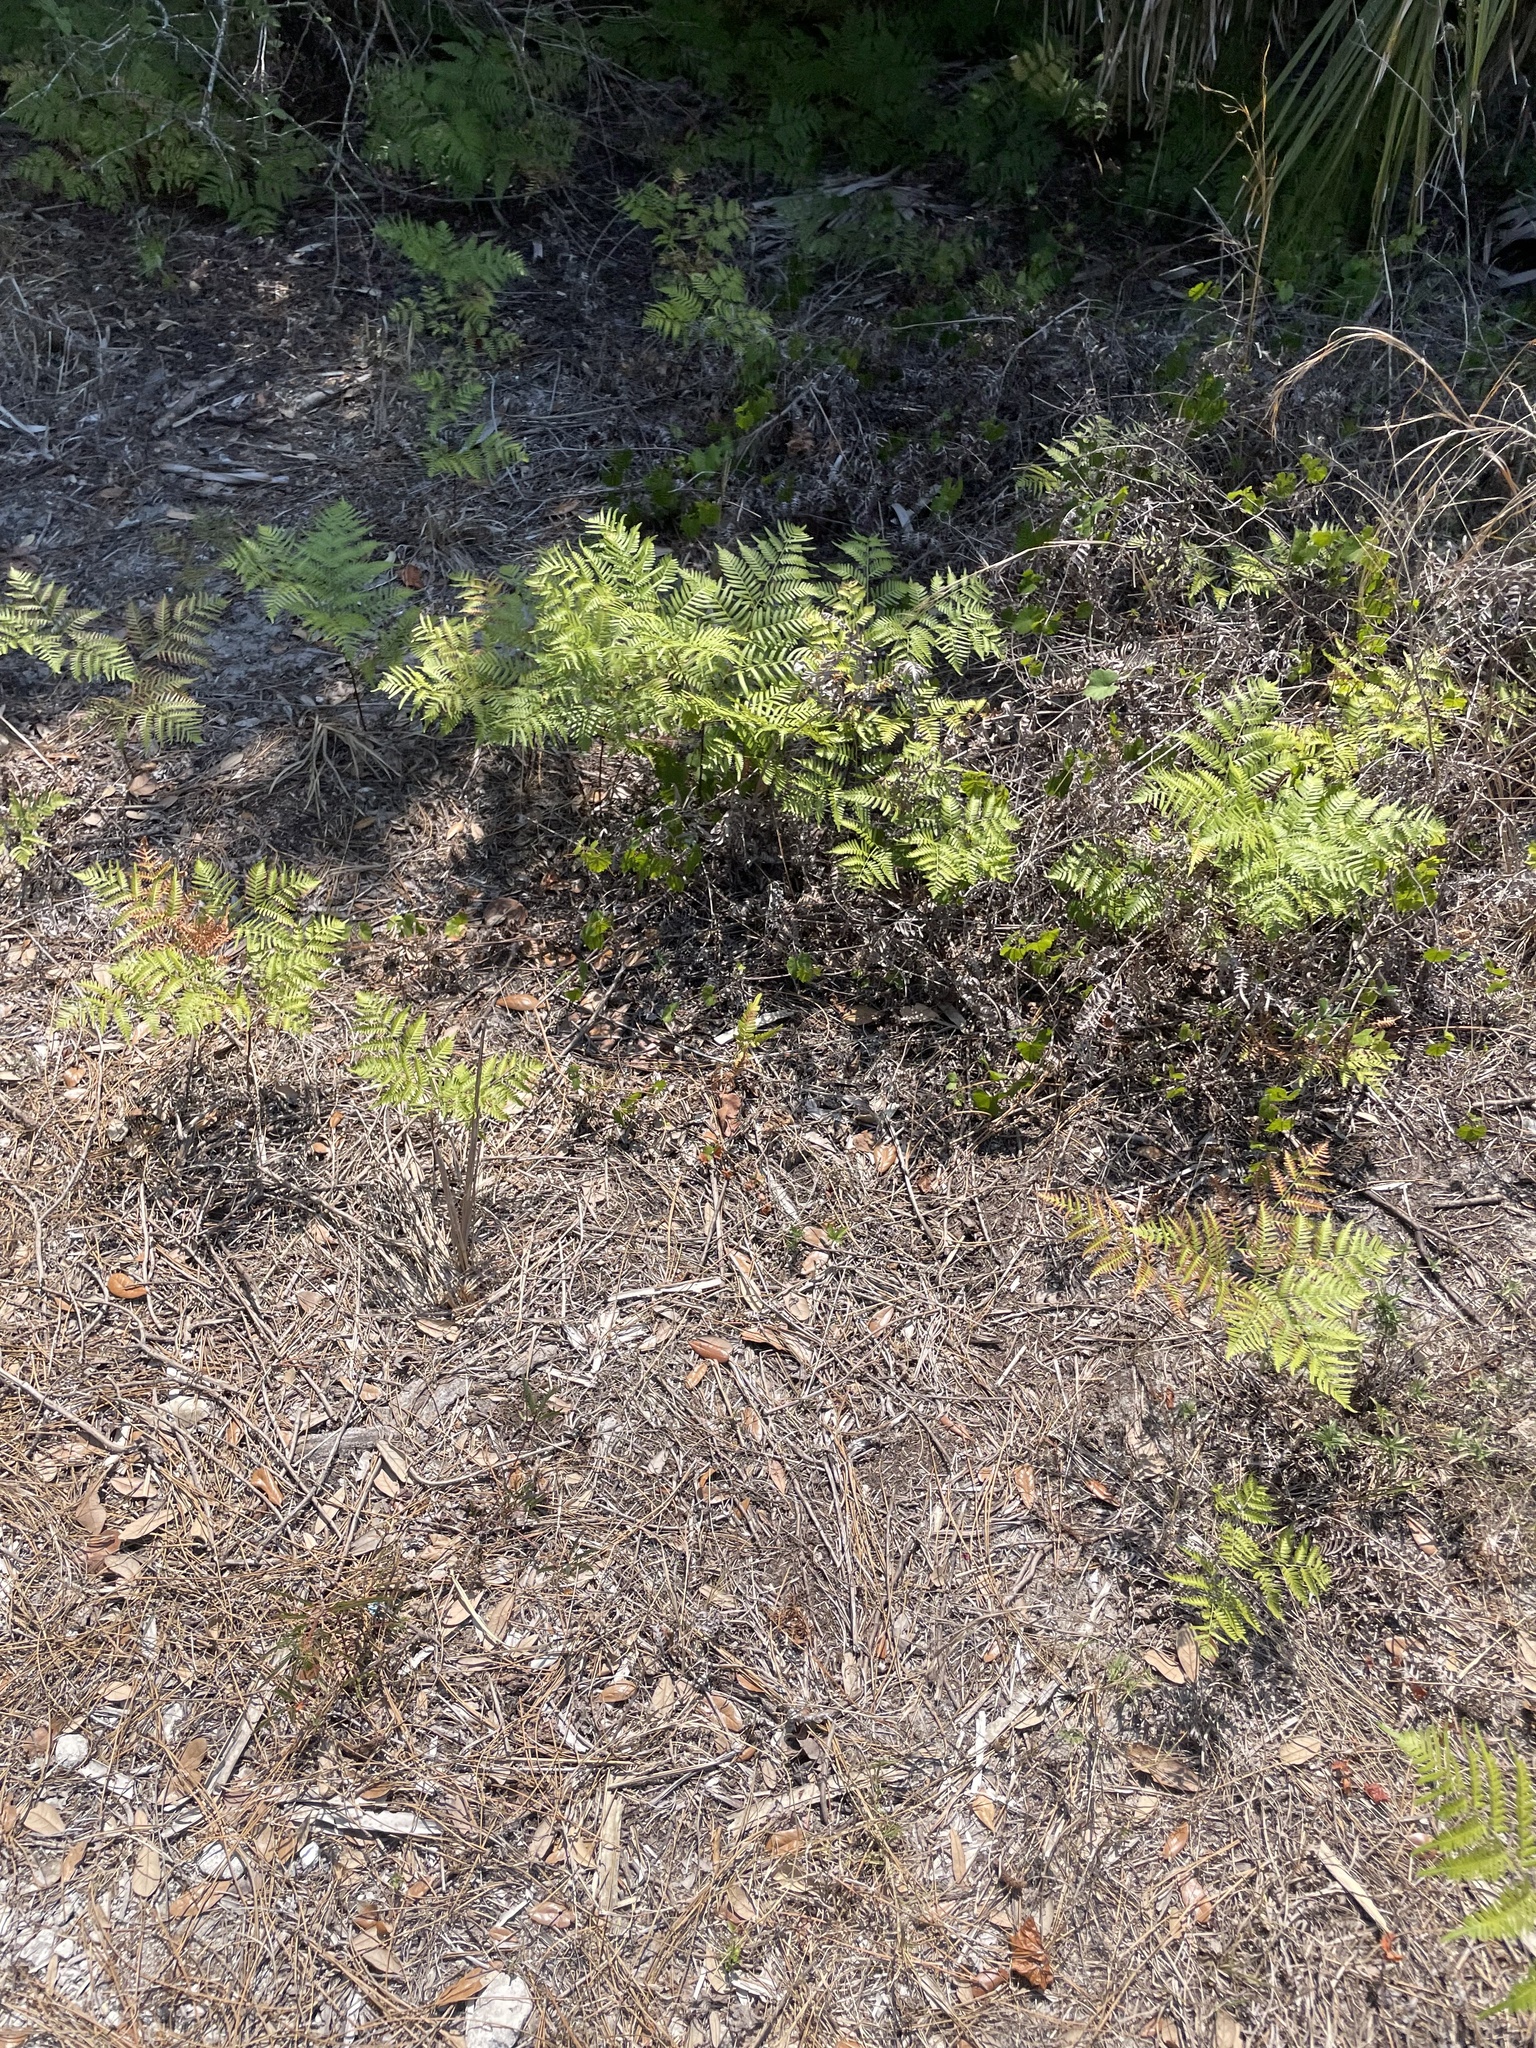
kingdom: Plantae
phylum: Tracheophyta
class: Polypodiopsida
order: Polypodiales
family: Dennstaedtiaceae
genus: Pteridium
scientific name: Pteridium caudatum
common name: Southern bracken fern
